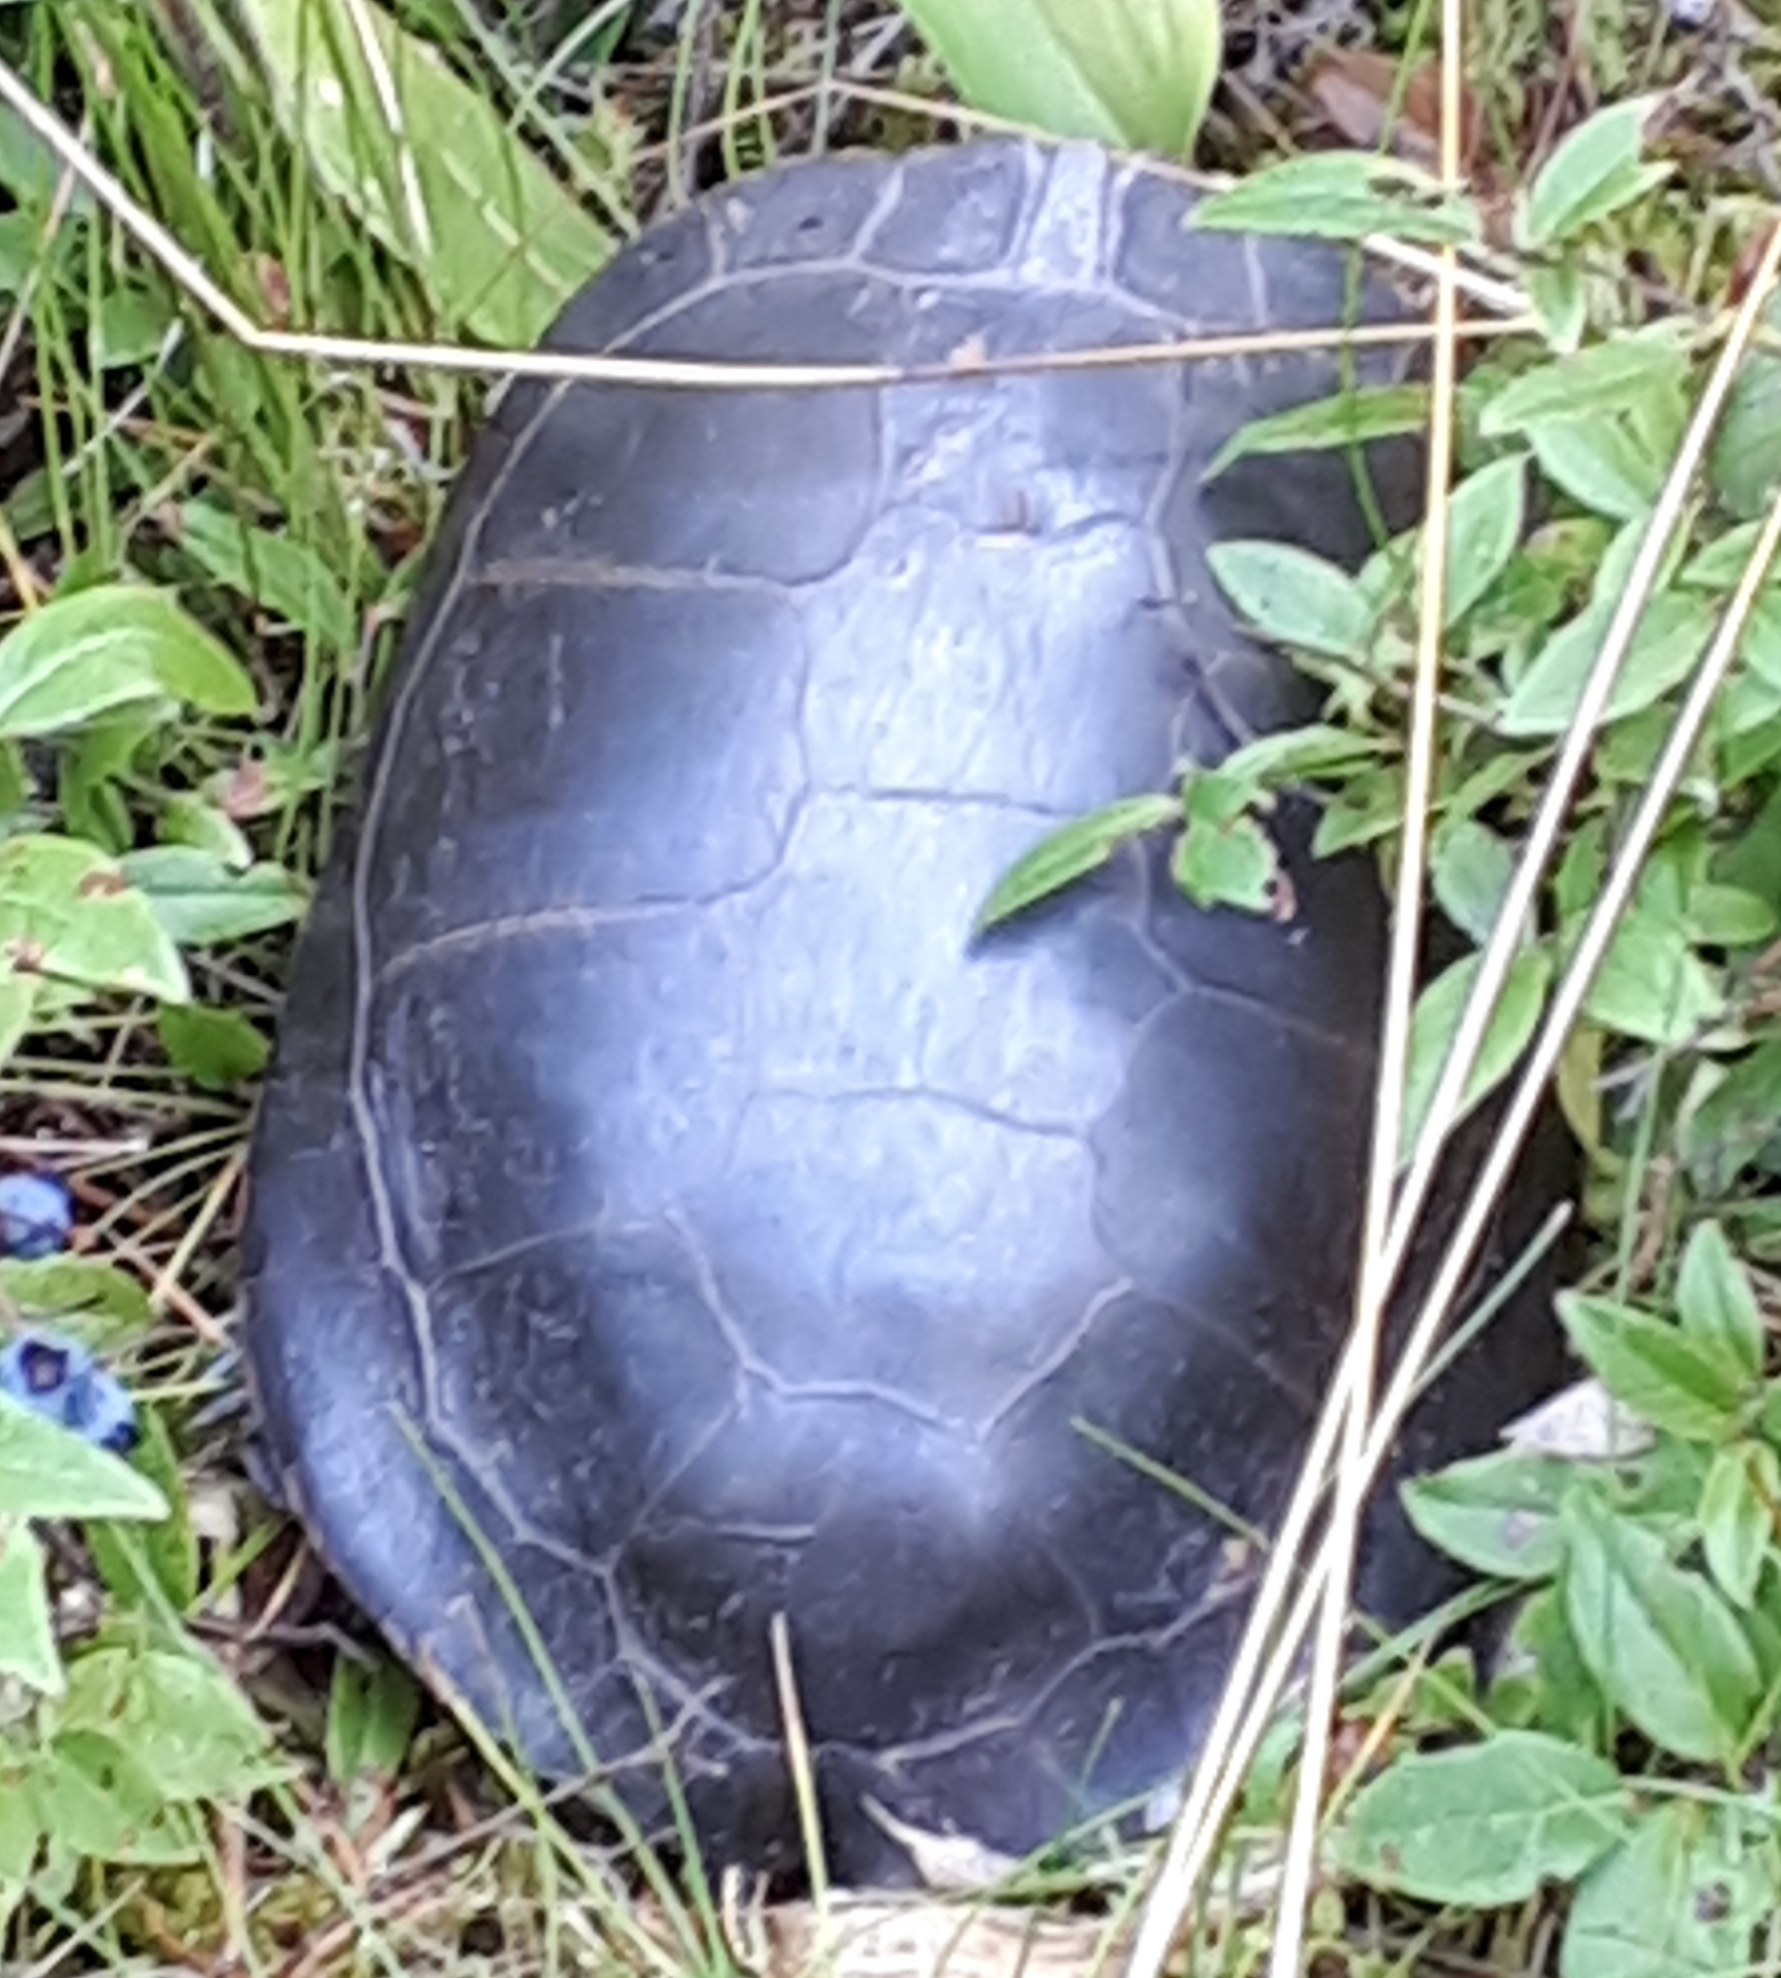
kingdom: Animalia
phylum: Chordata
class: Testudines
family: Emydidae
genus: Chrysemys
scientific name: Chrysemys picta
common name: Painted turtle
